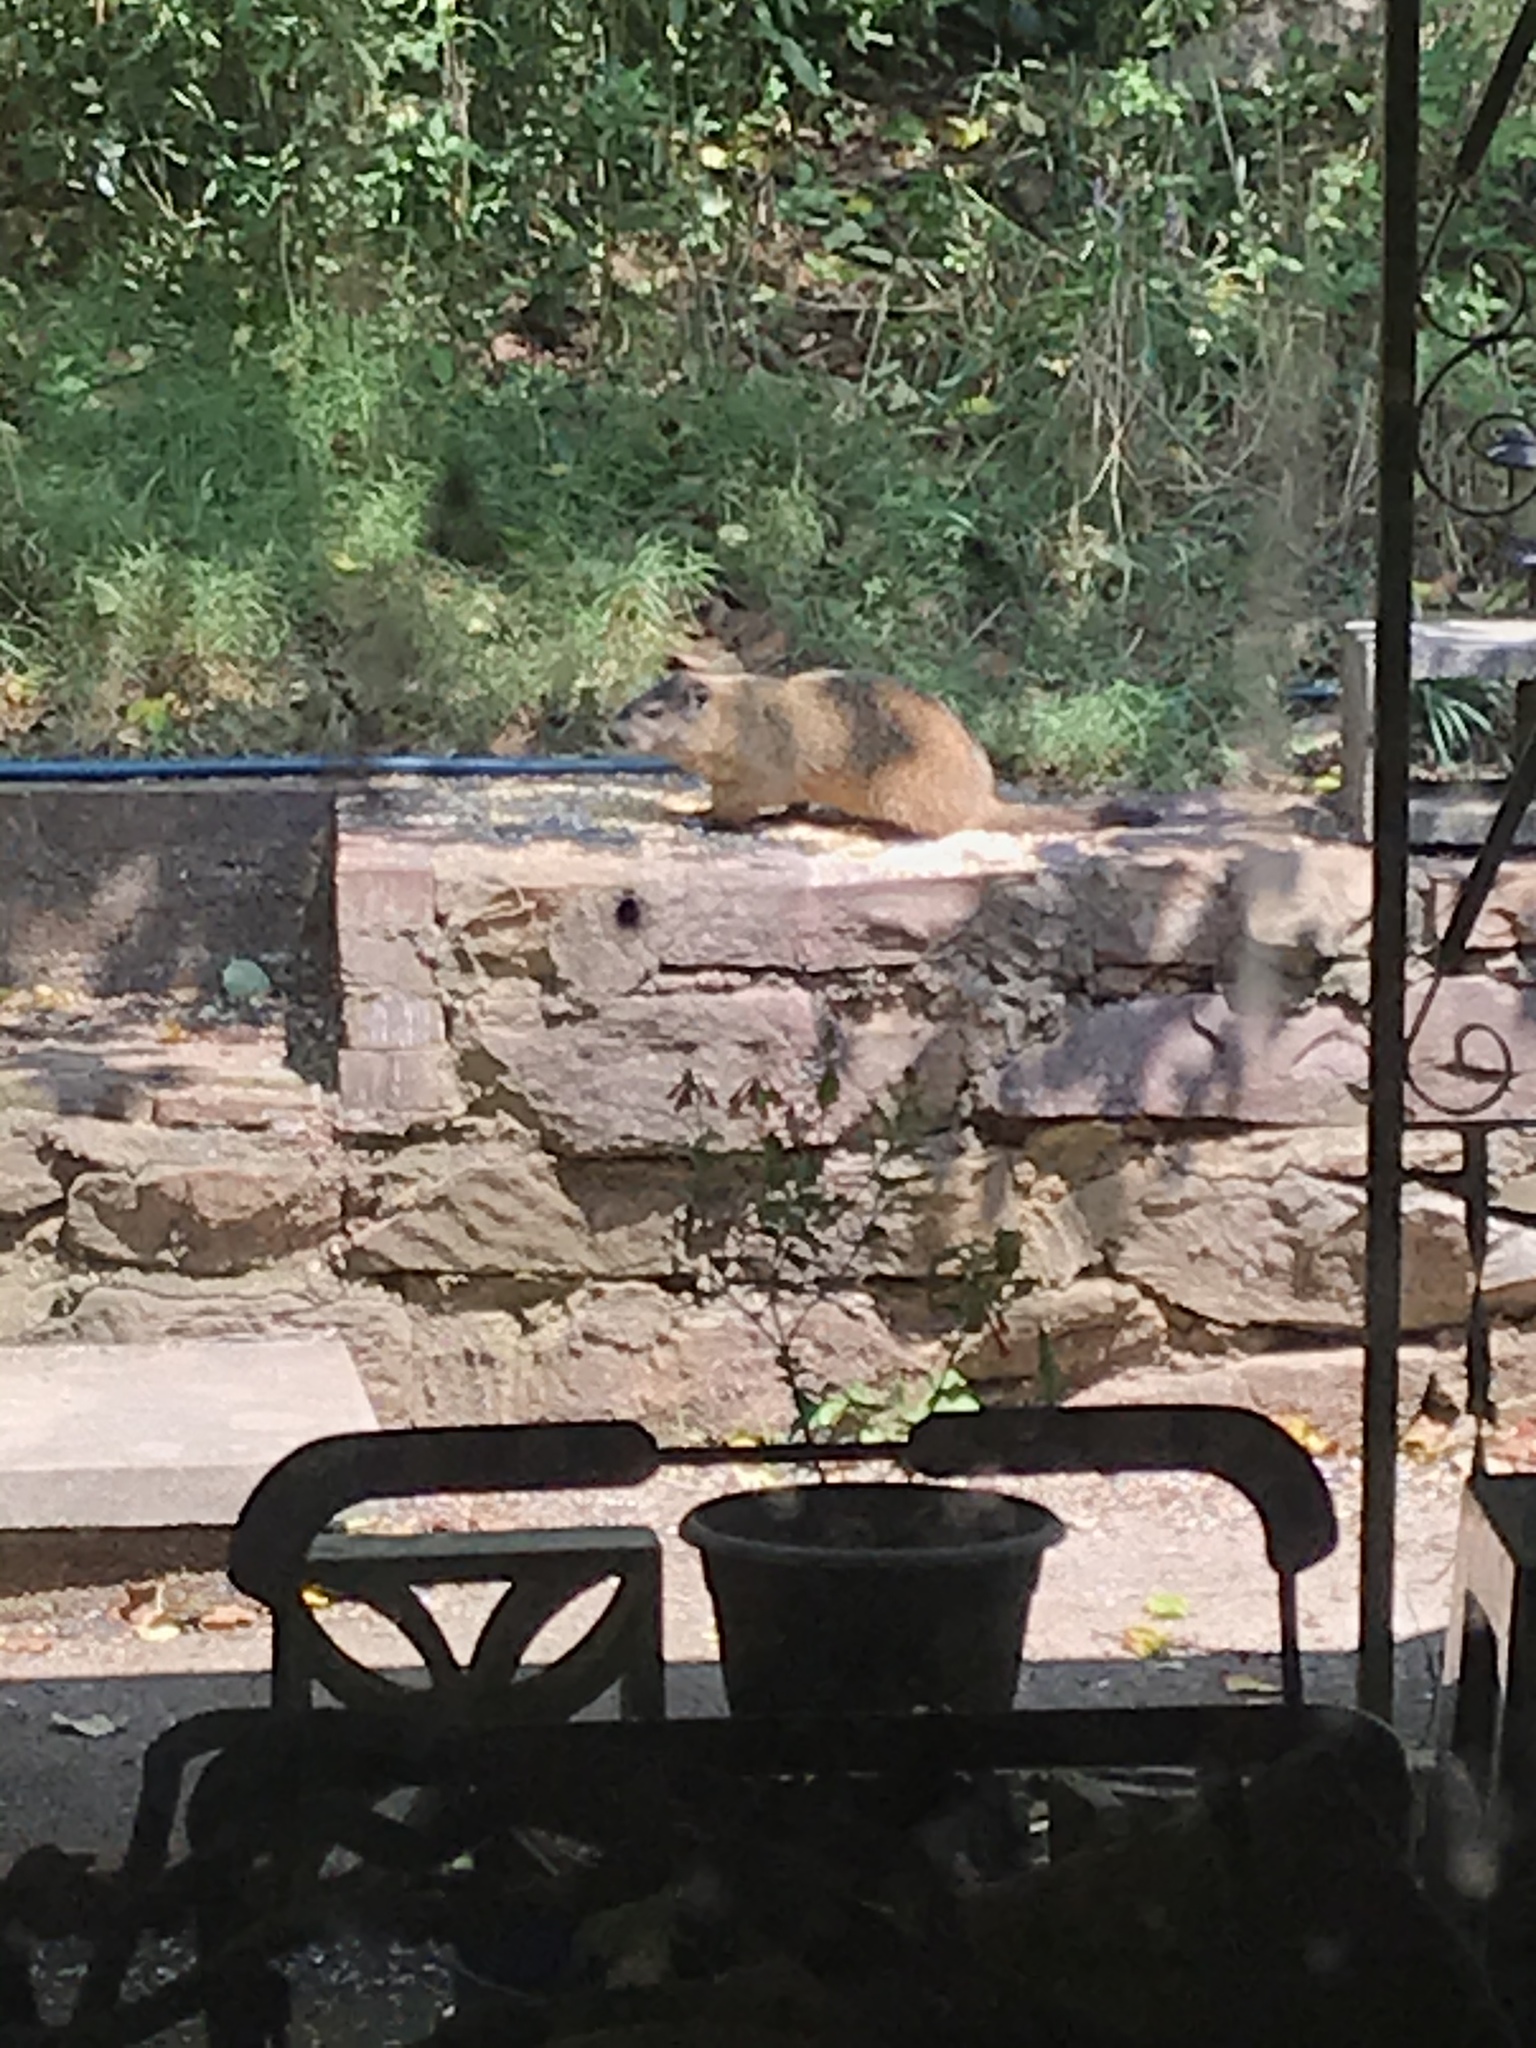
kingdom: Animalia
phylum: Chordata
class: Mammalia
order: Rodentia
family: Sciuridae
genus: Marmota
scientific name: Marmota monax
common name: Groundhog
